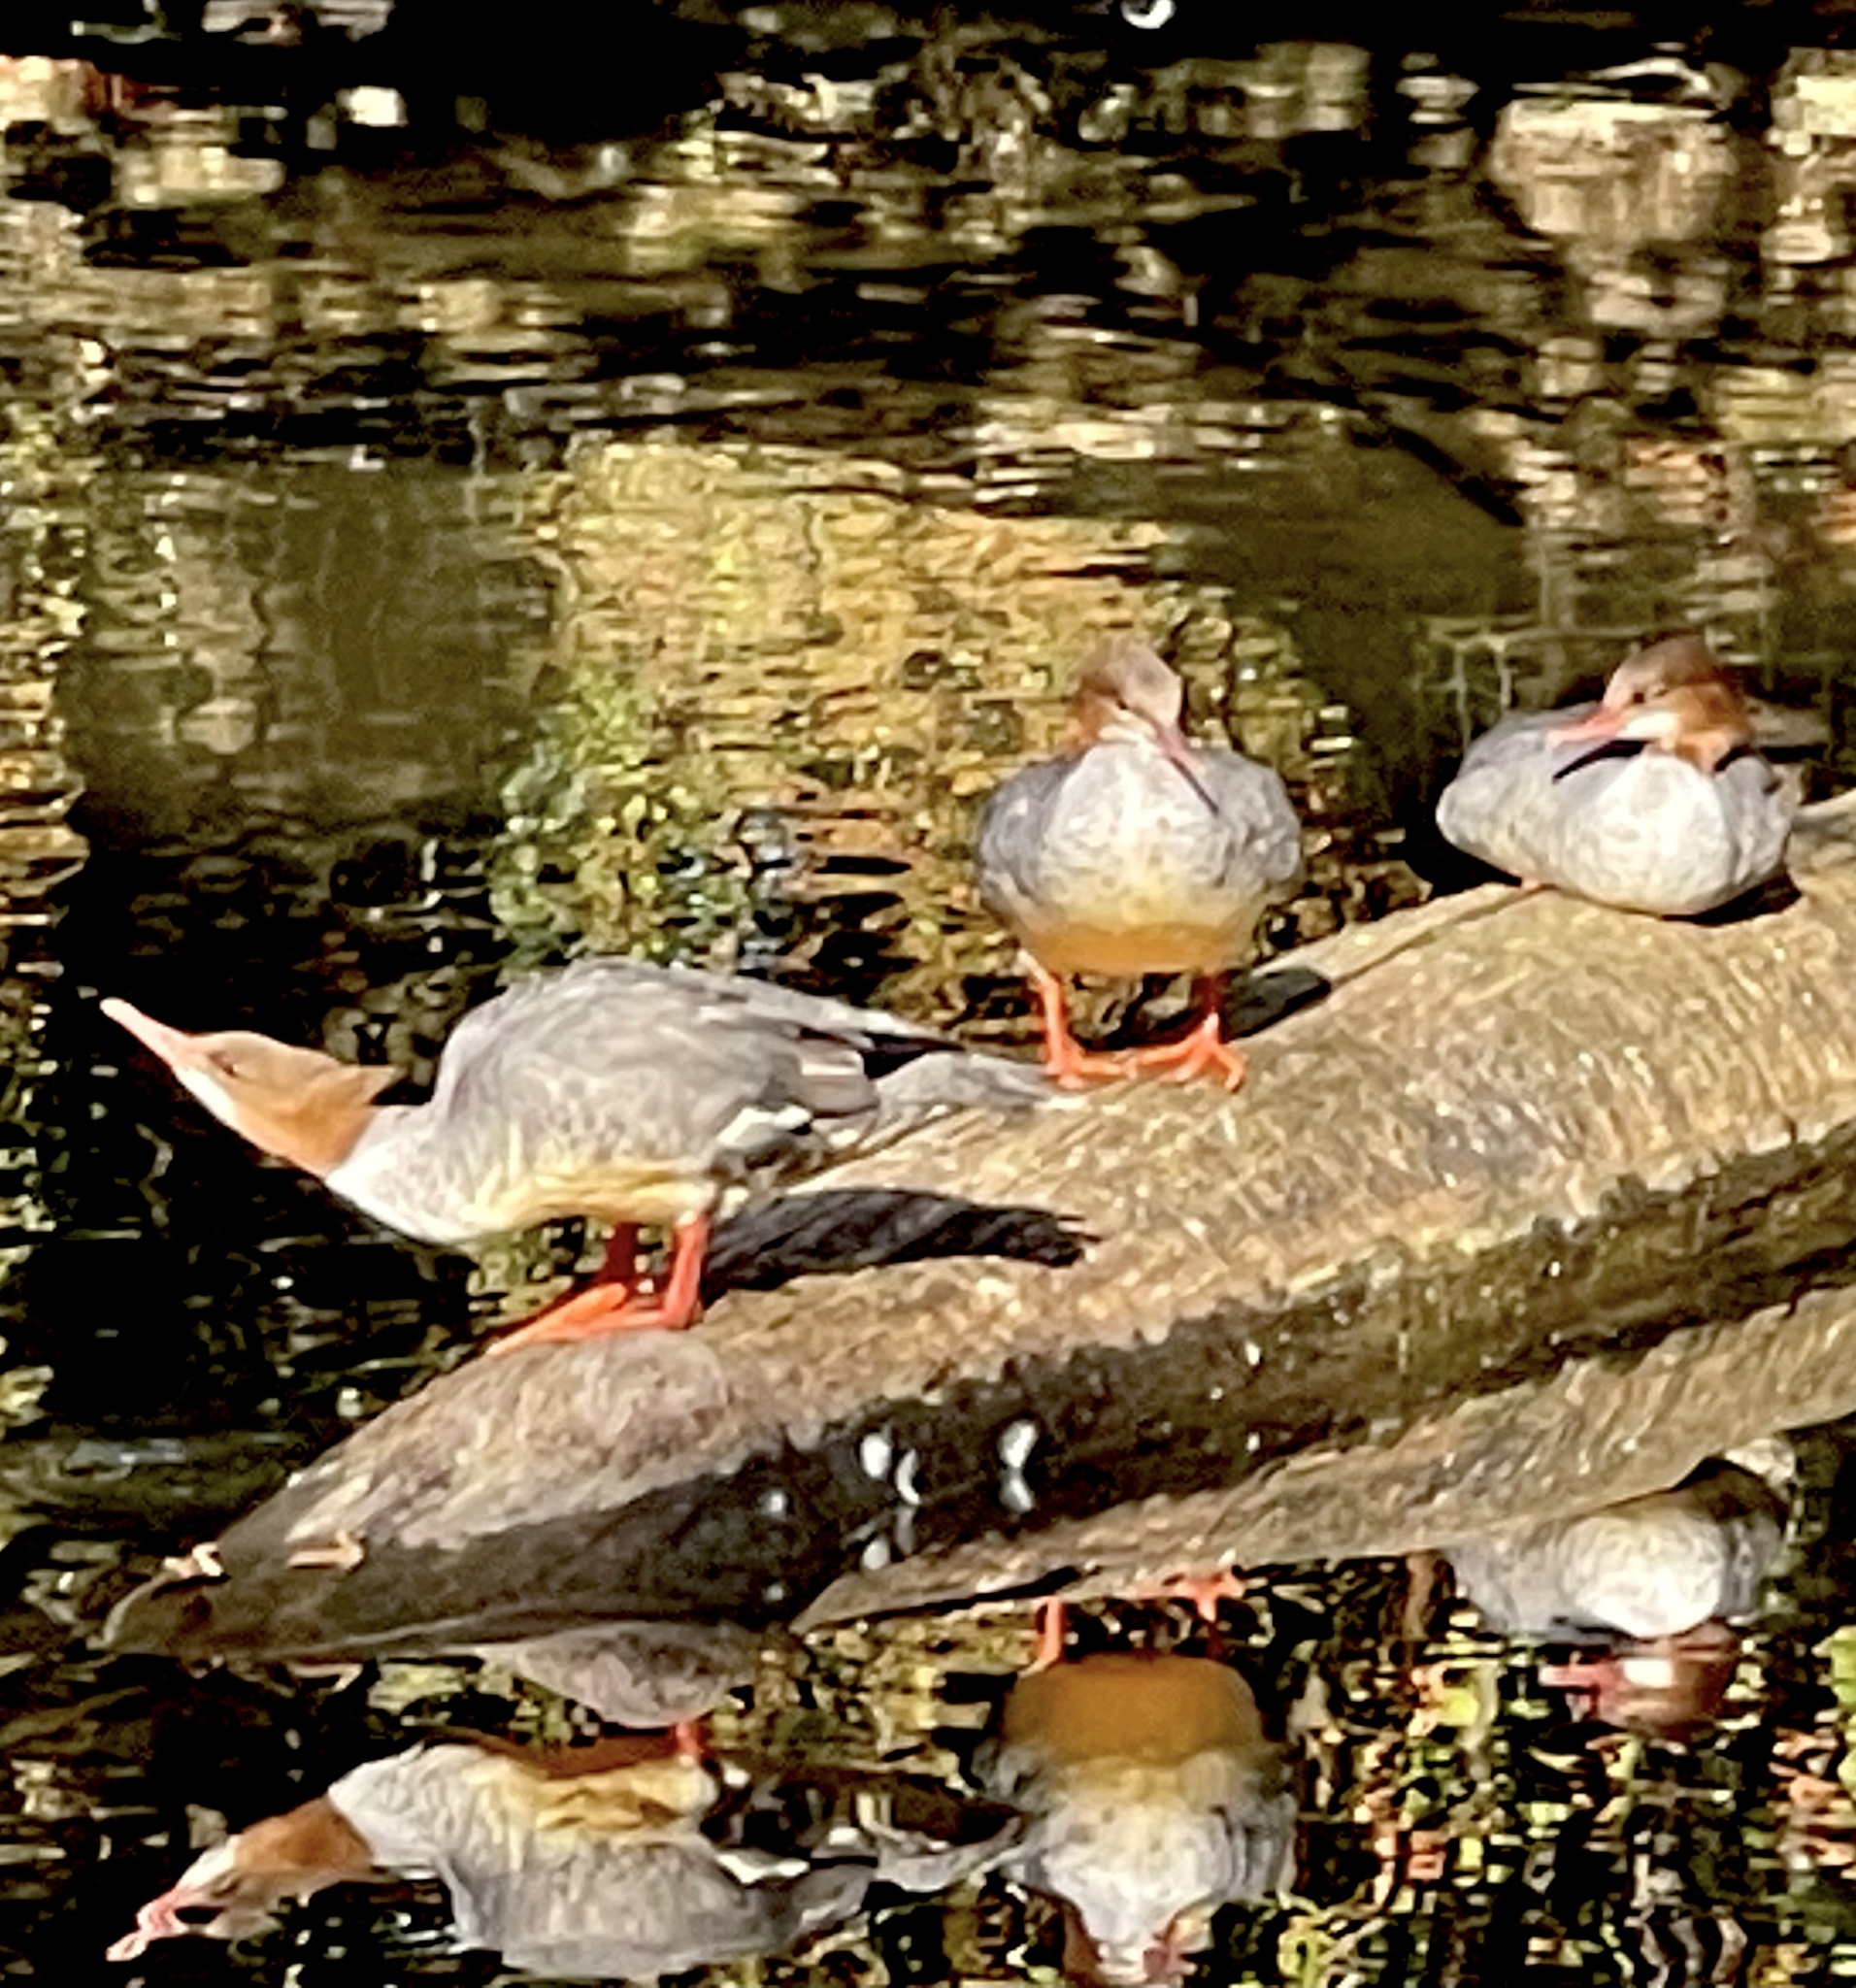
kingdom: Animalia
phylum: Chordata
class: Aves
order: Anseriformes
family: Anatidae
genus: Mergus
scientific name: Mergus merganser
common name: Common merganser
